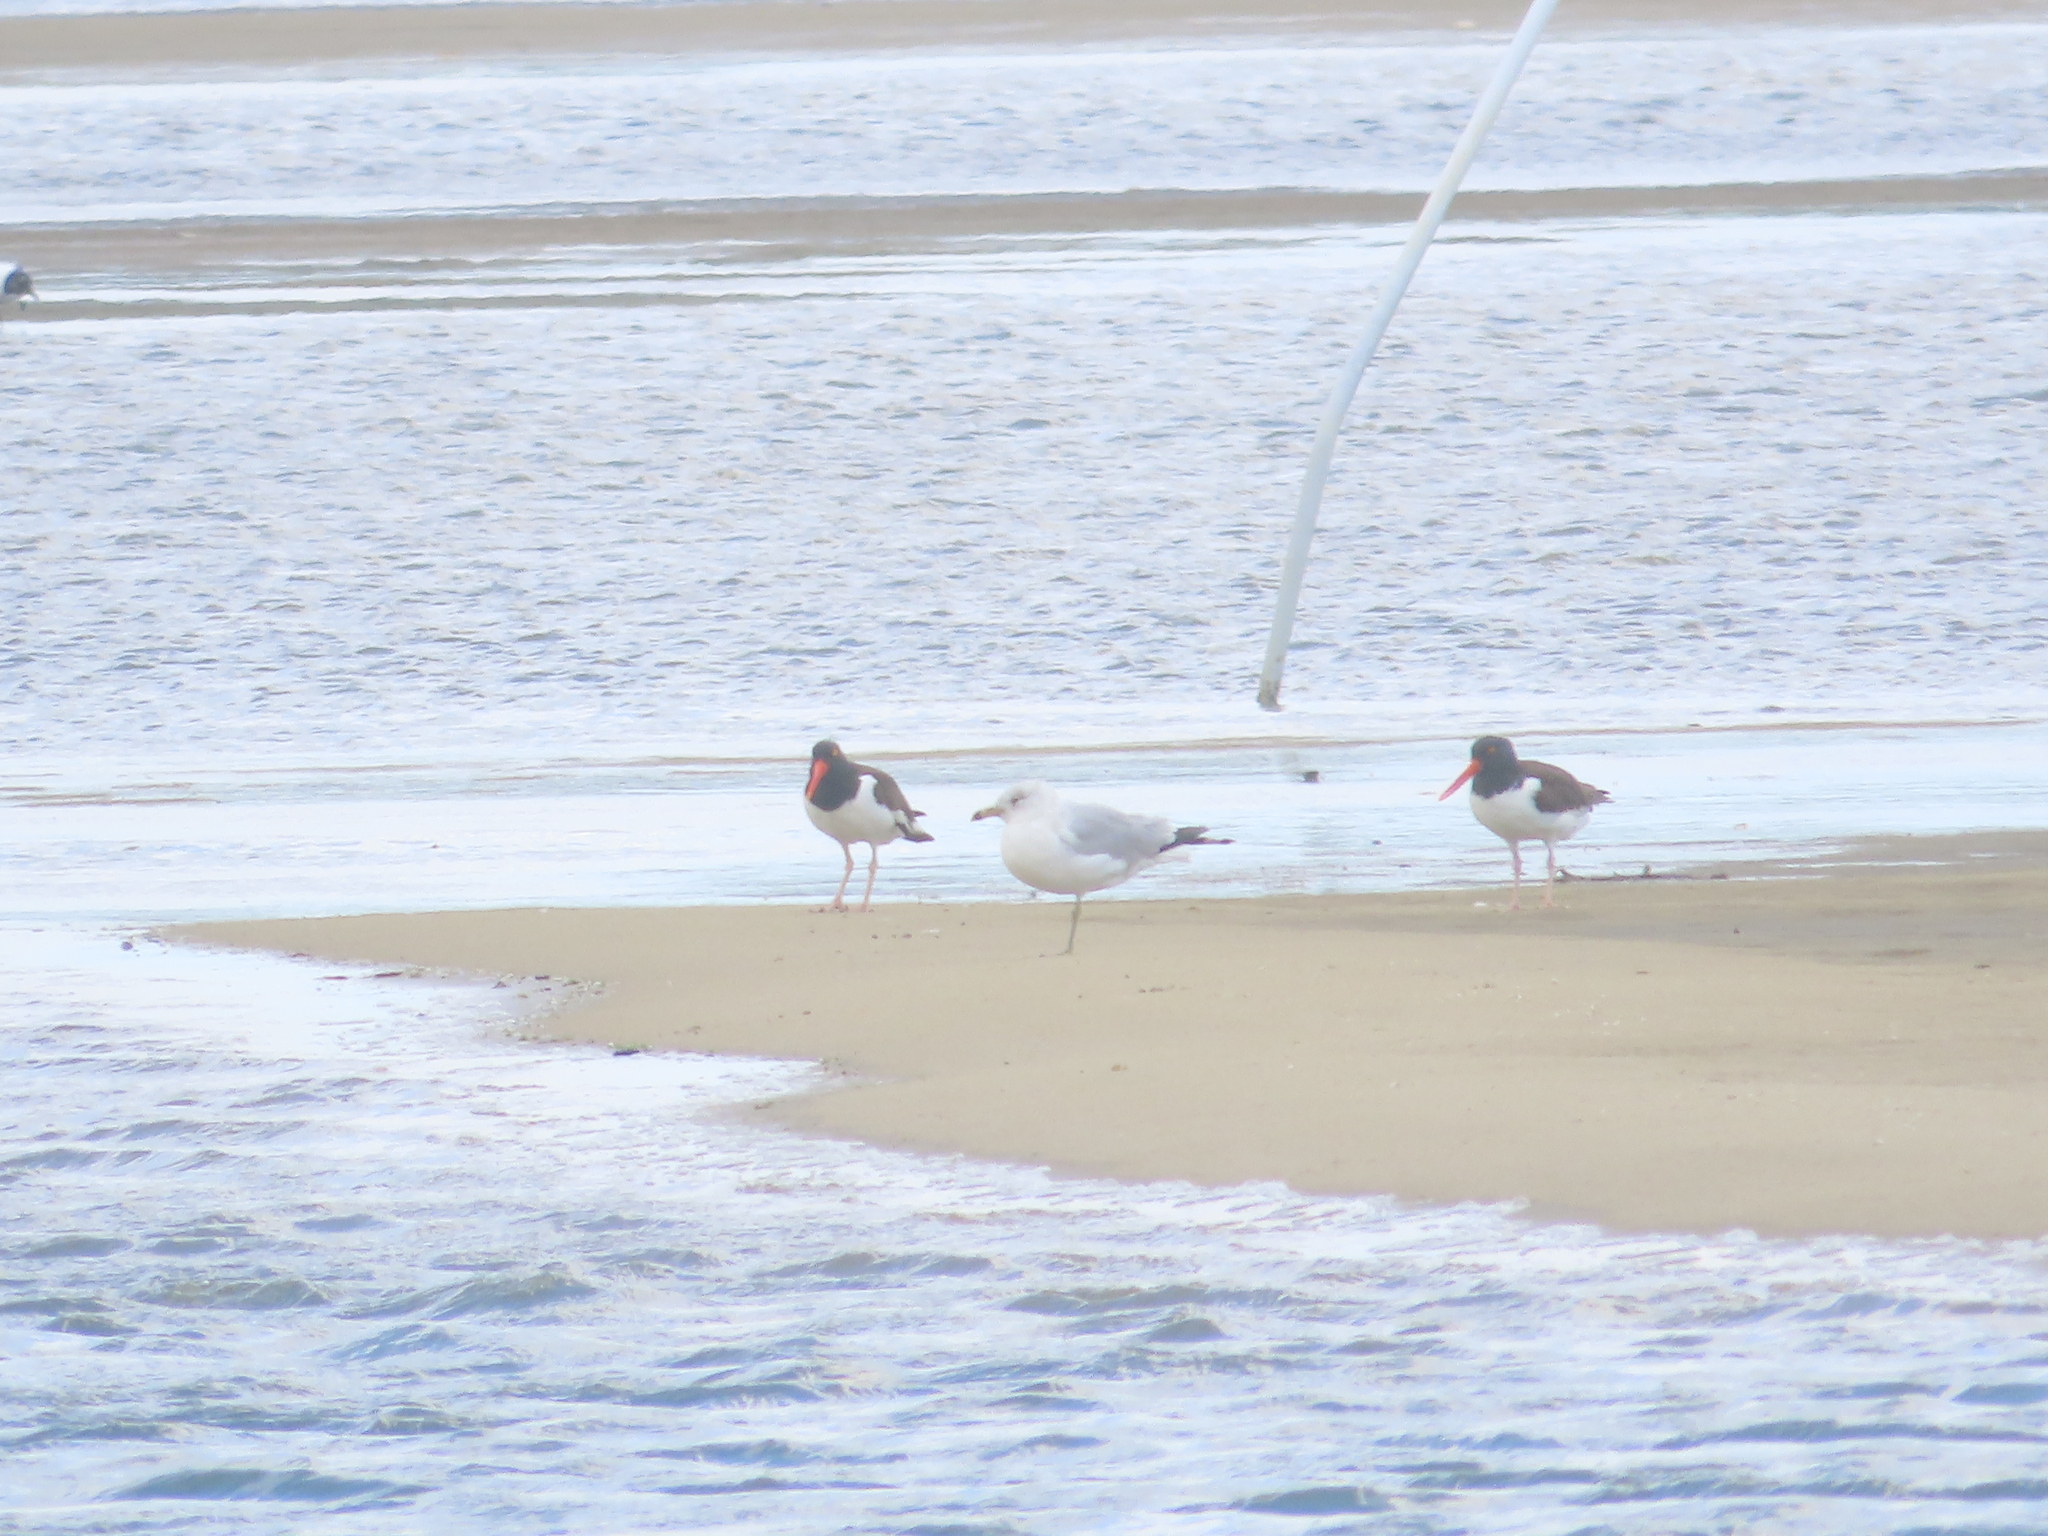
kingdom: Animalia
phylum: Chordata
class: Aves
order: Charadriiformes
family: Haematopodidae
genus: Haematopus
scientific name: Haematopus palliatus
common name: American oystercatcher
